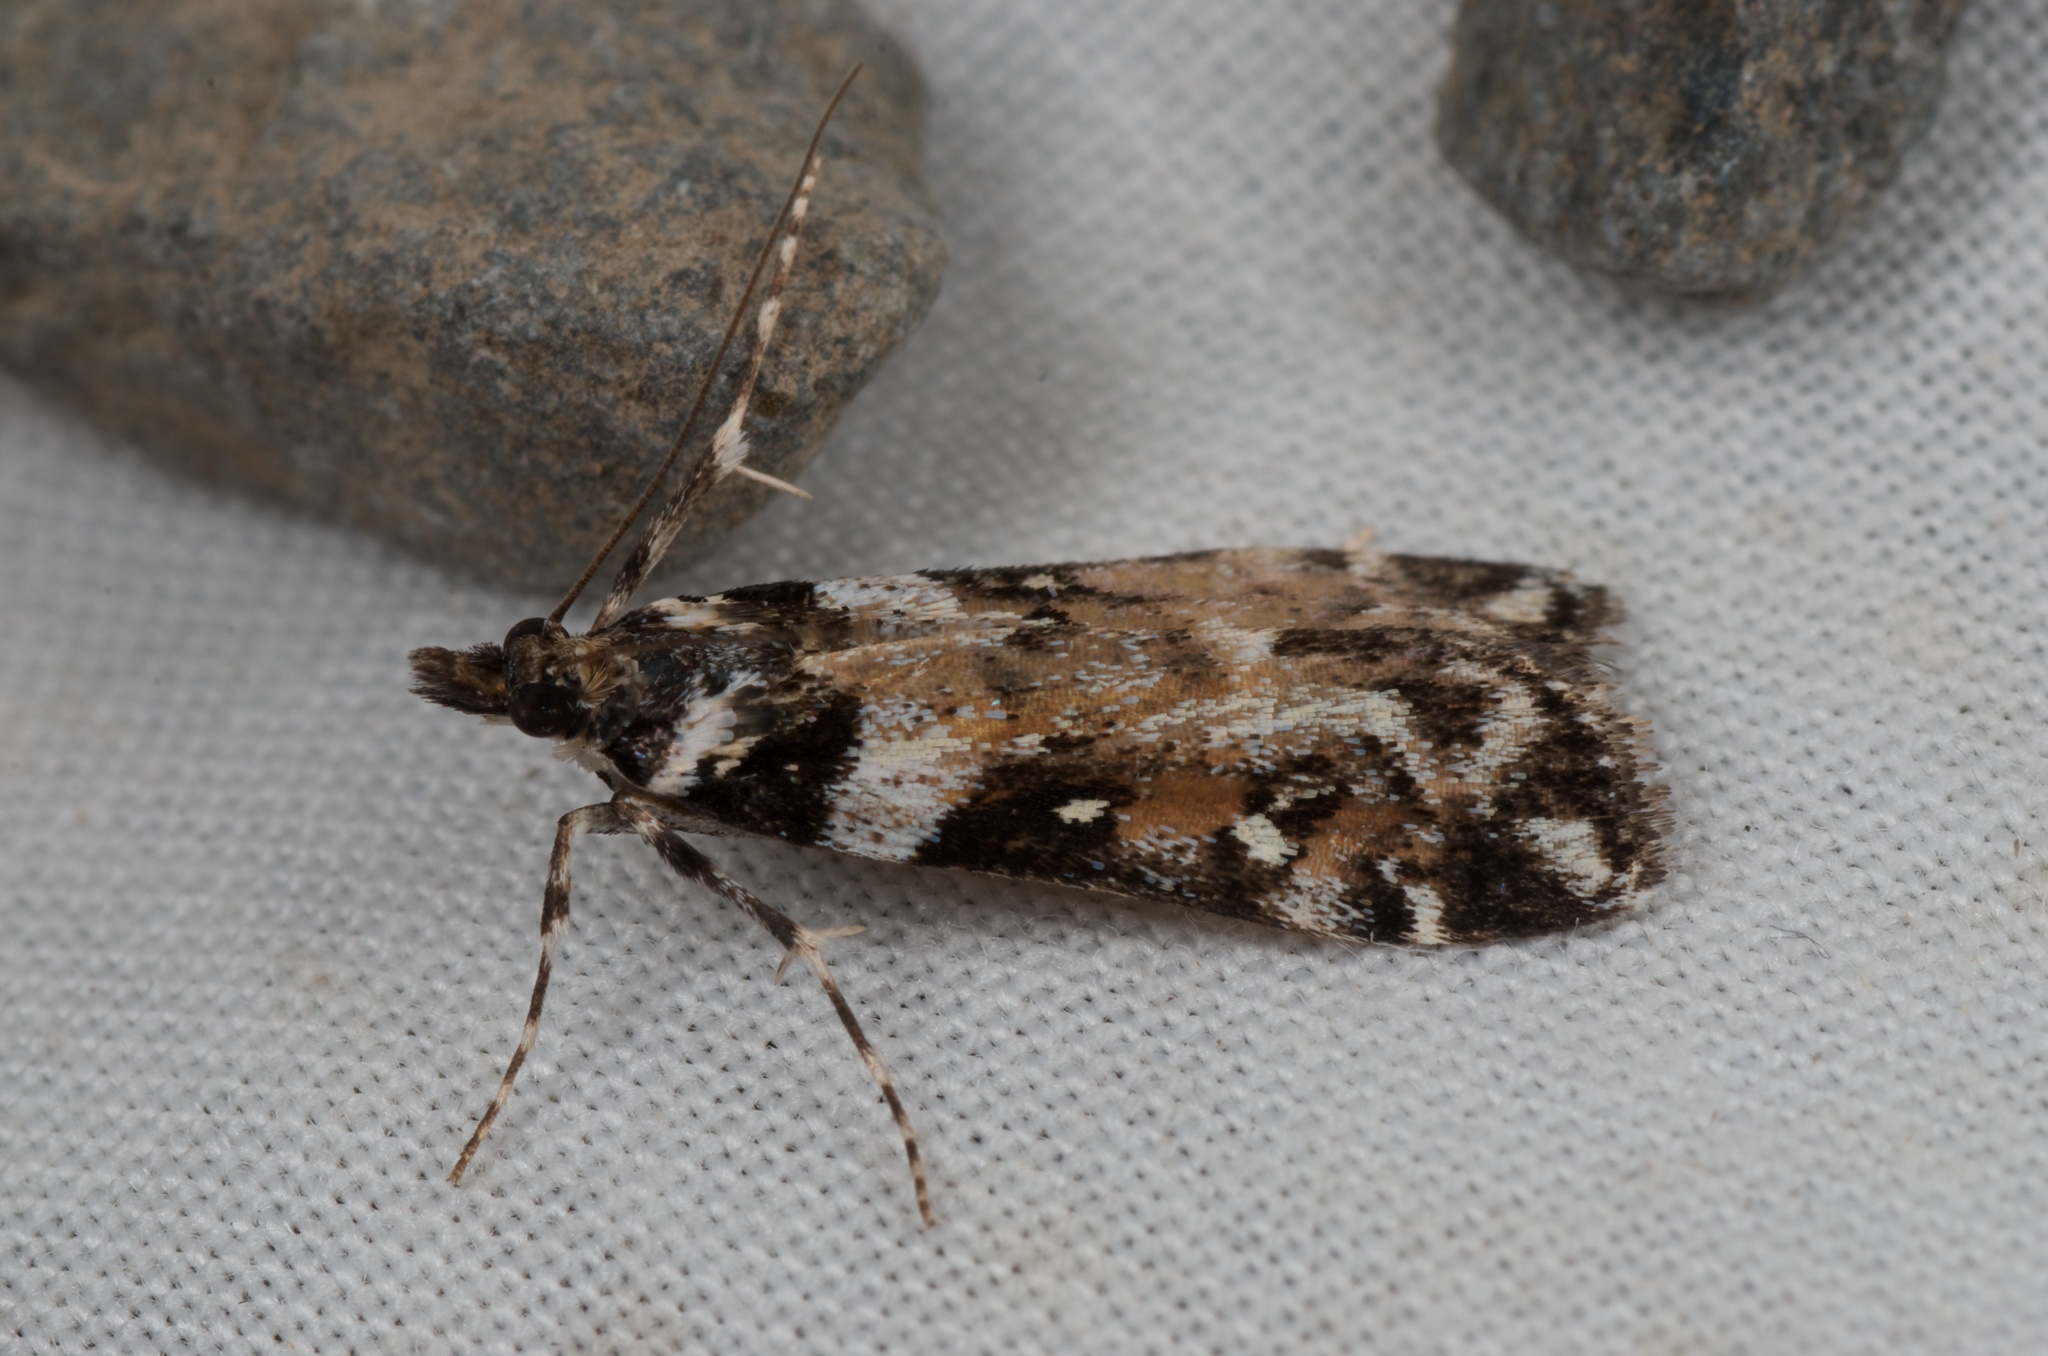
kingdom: Animalia
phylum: Arthropoda
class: Insecta
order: Lepidoptera
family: Crambidae
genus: Eudonia
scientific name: Eudonia diphtheralis
